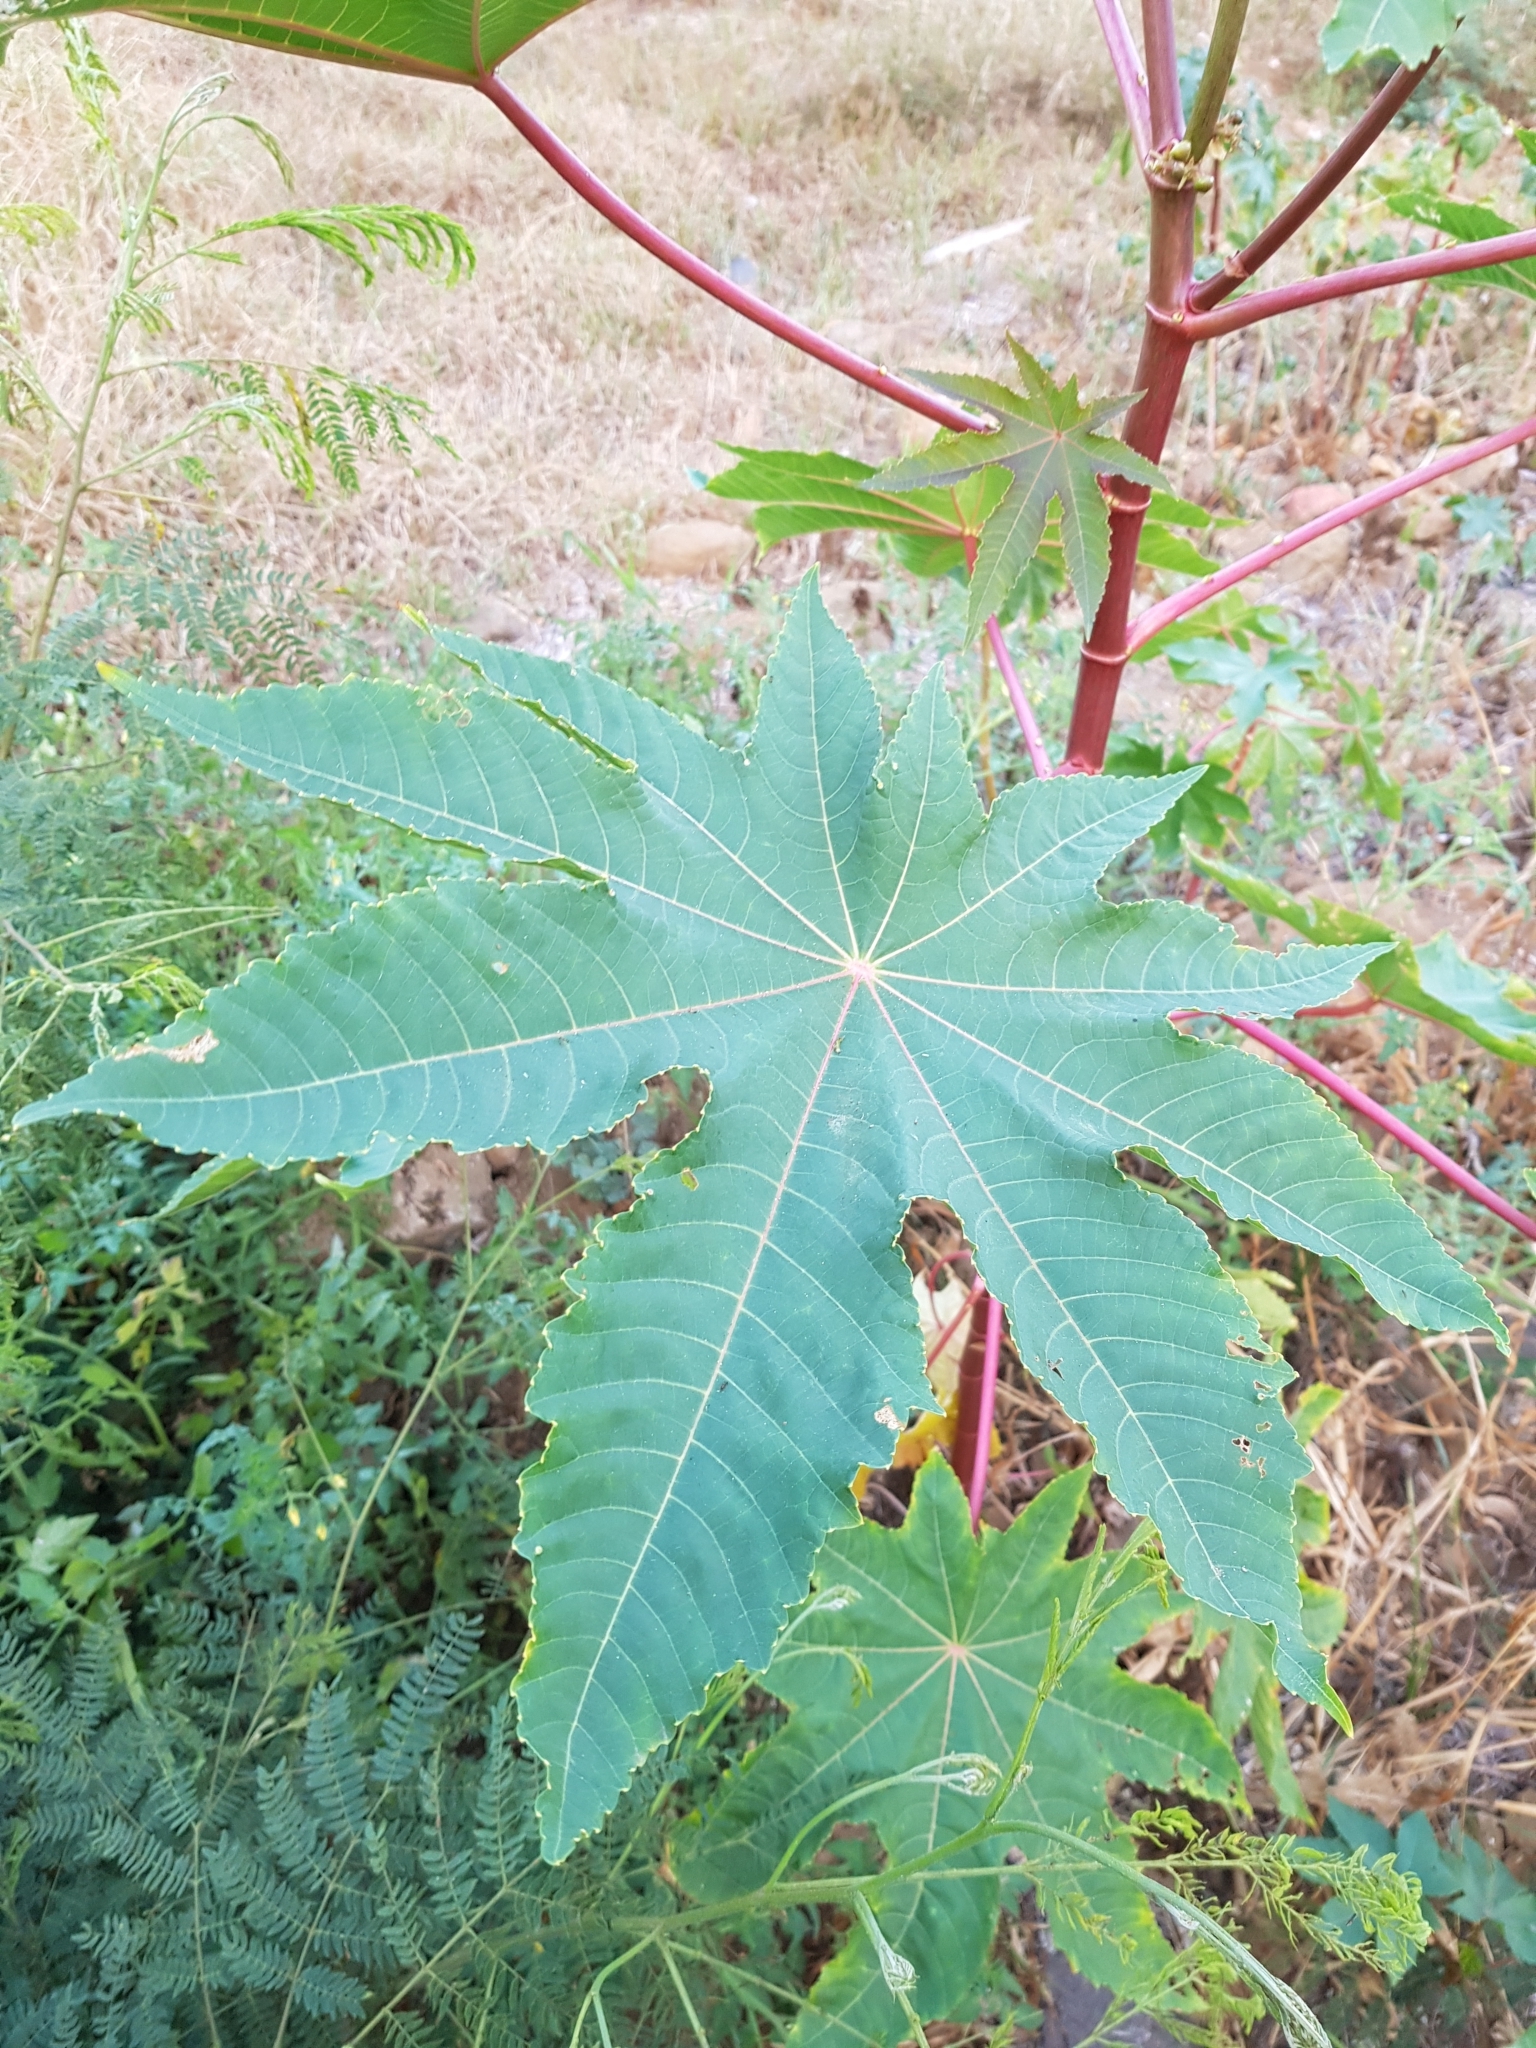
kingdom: Plantae
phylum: Tracheophyta
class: Magnoliopsida
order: Malpighiales
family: Euphorbiaceae
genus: Ricinus
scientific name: Ricinus communis
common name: Castor-oil-plant
